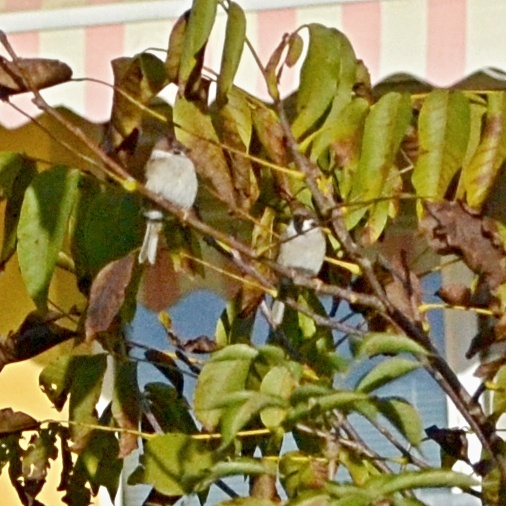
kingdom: Animalia
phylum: Chordata
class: Aves
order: Passeriformes
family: Passeridae
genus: Passer
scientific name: Passer montanus
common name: Eurasian tree sparrow
